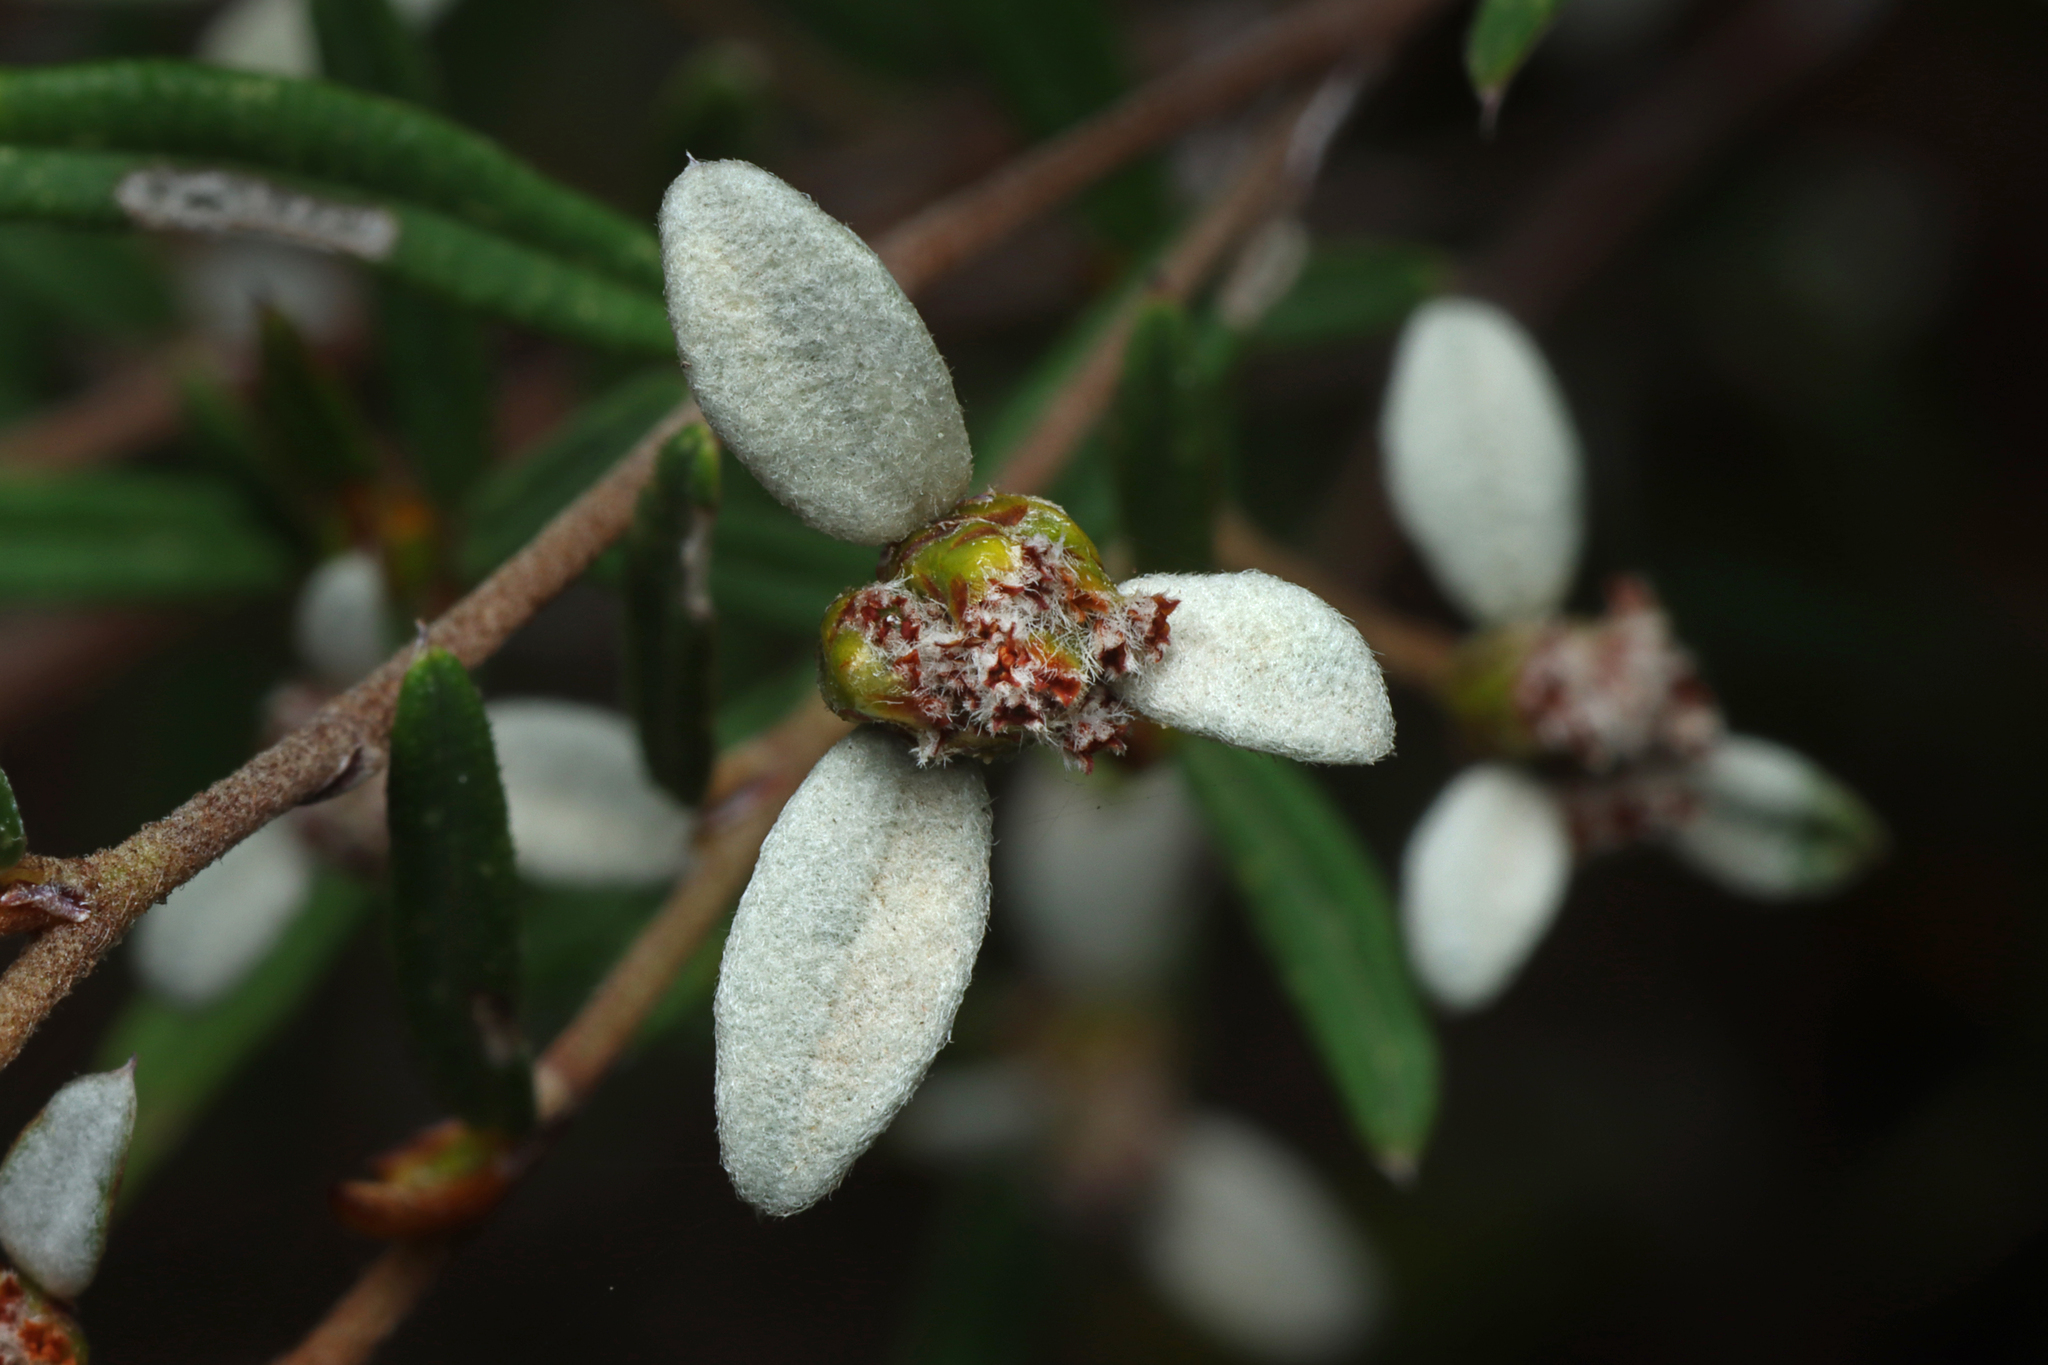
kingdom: Plantae
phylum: Tracheophyta
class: Magnoliopsida
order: Rosales
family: Rhamnaceae
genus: Spyridium
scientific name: Spyridium vexilliferum
